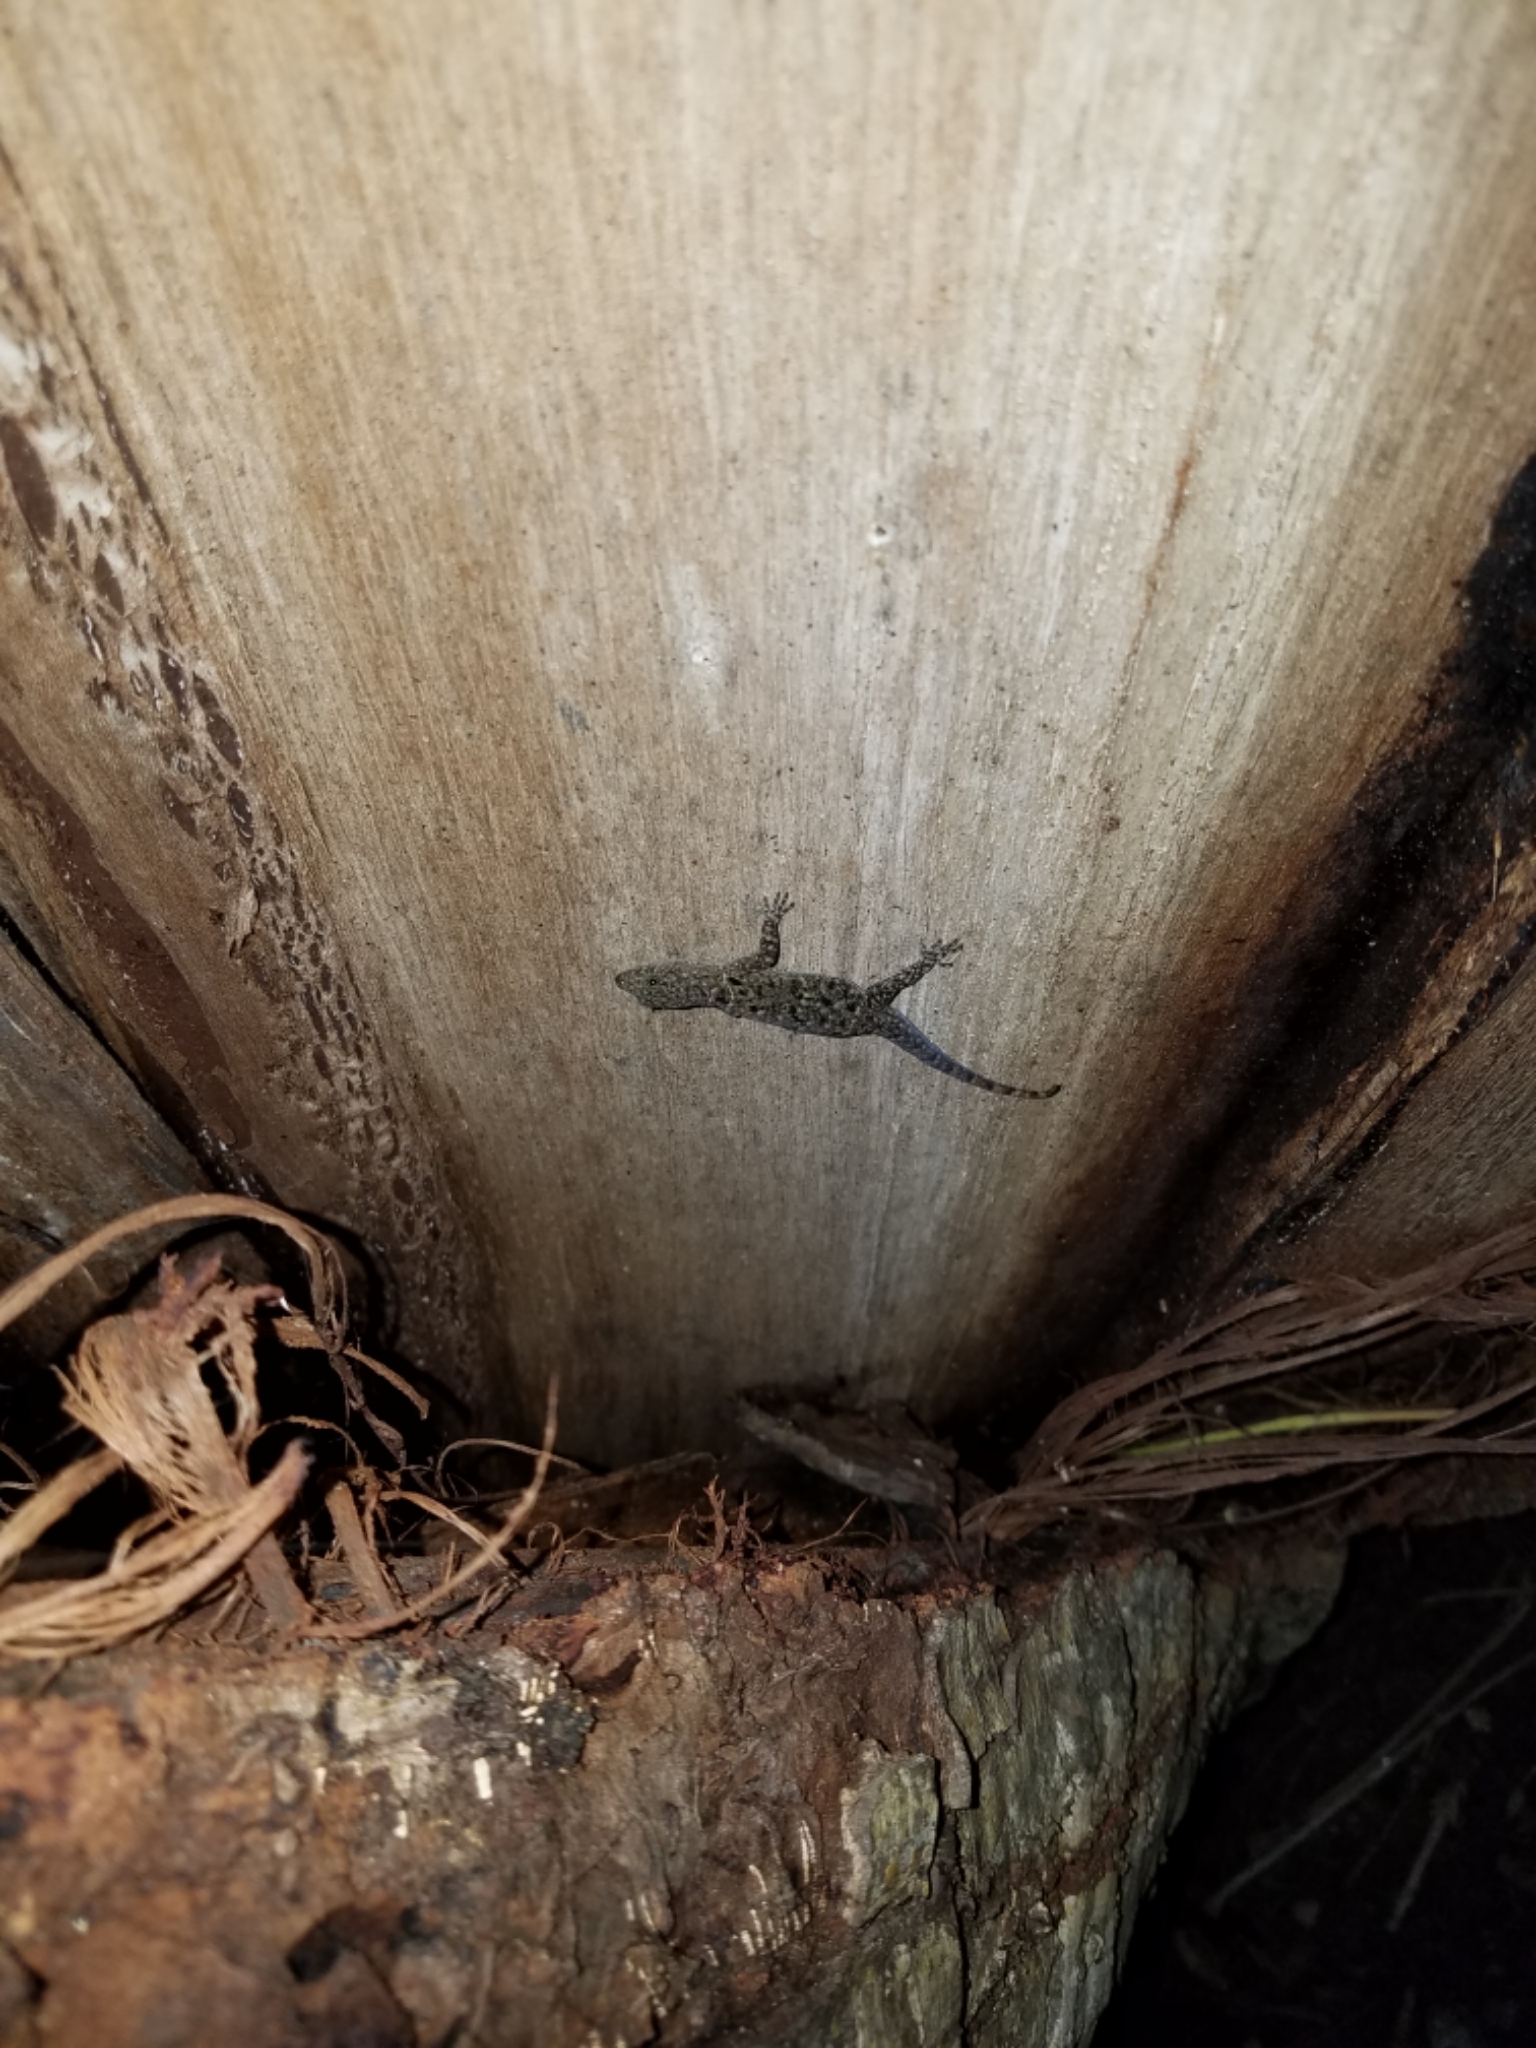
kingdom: Animalia
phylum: Chordata
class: Squamata
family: Sphaerodactylidae
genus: Gonatodes
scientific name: Gonatodes albogularis
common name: Yellow-headed gecko
